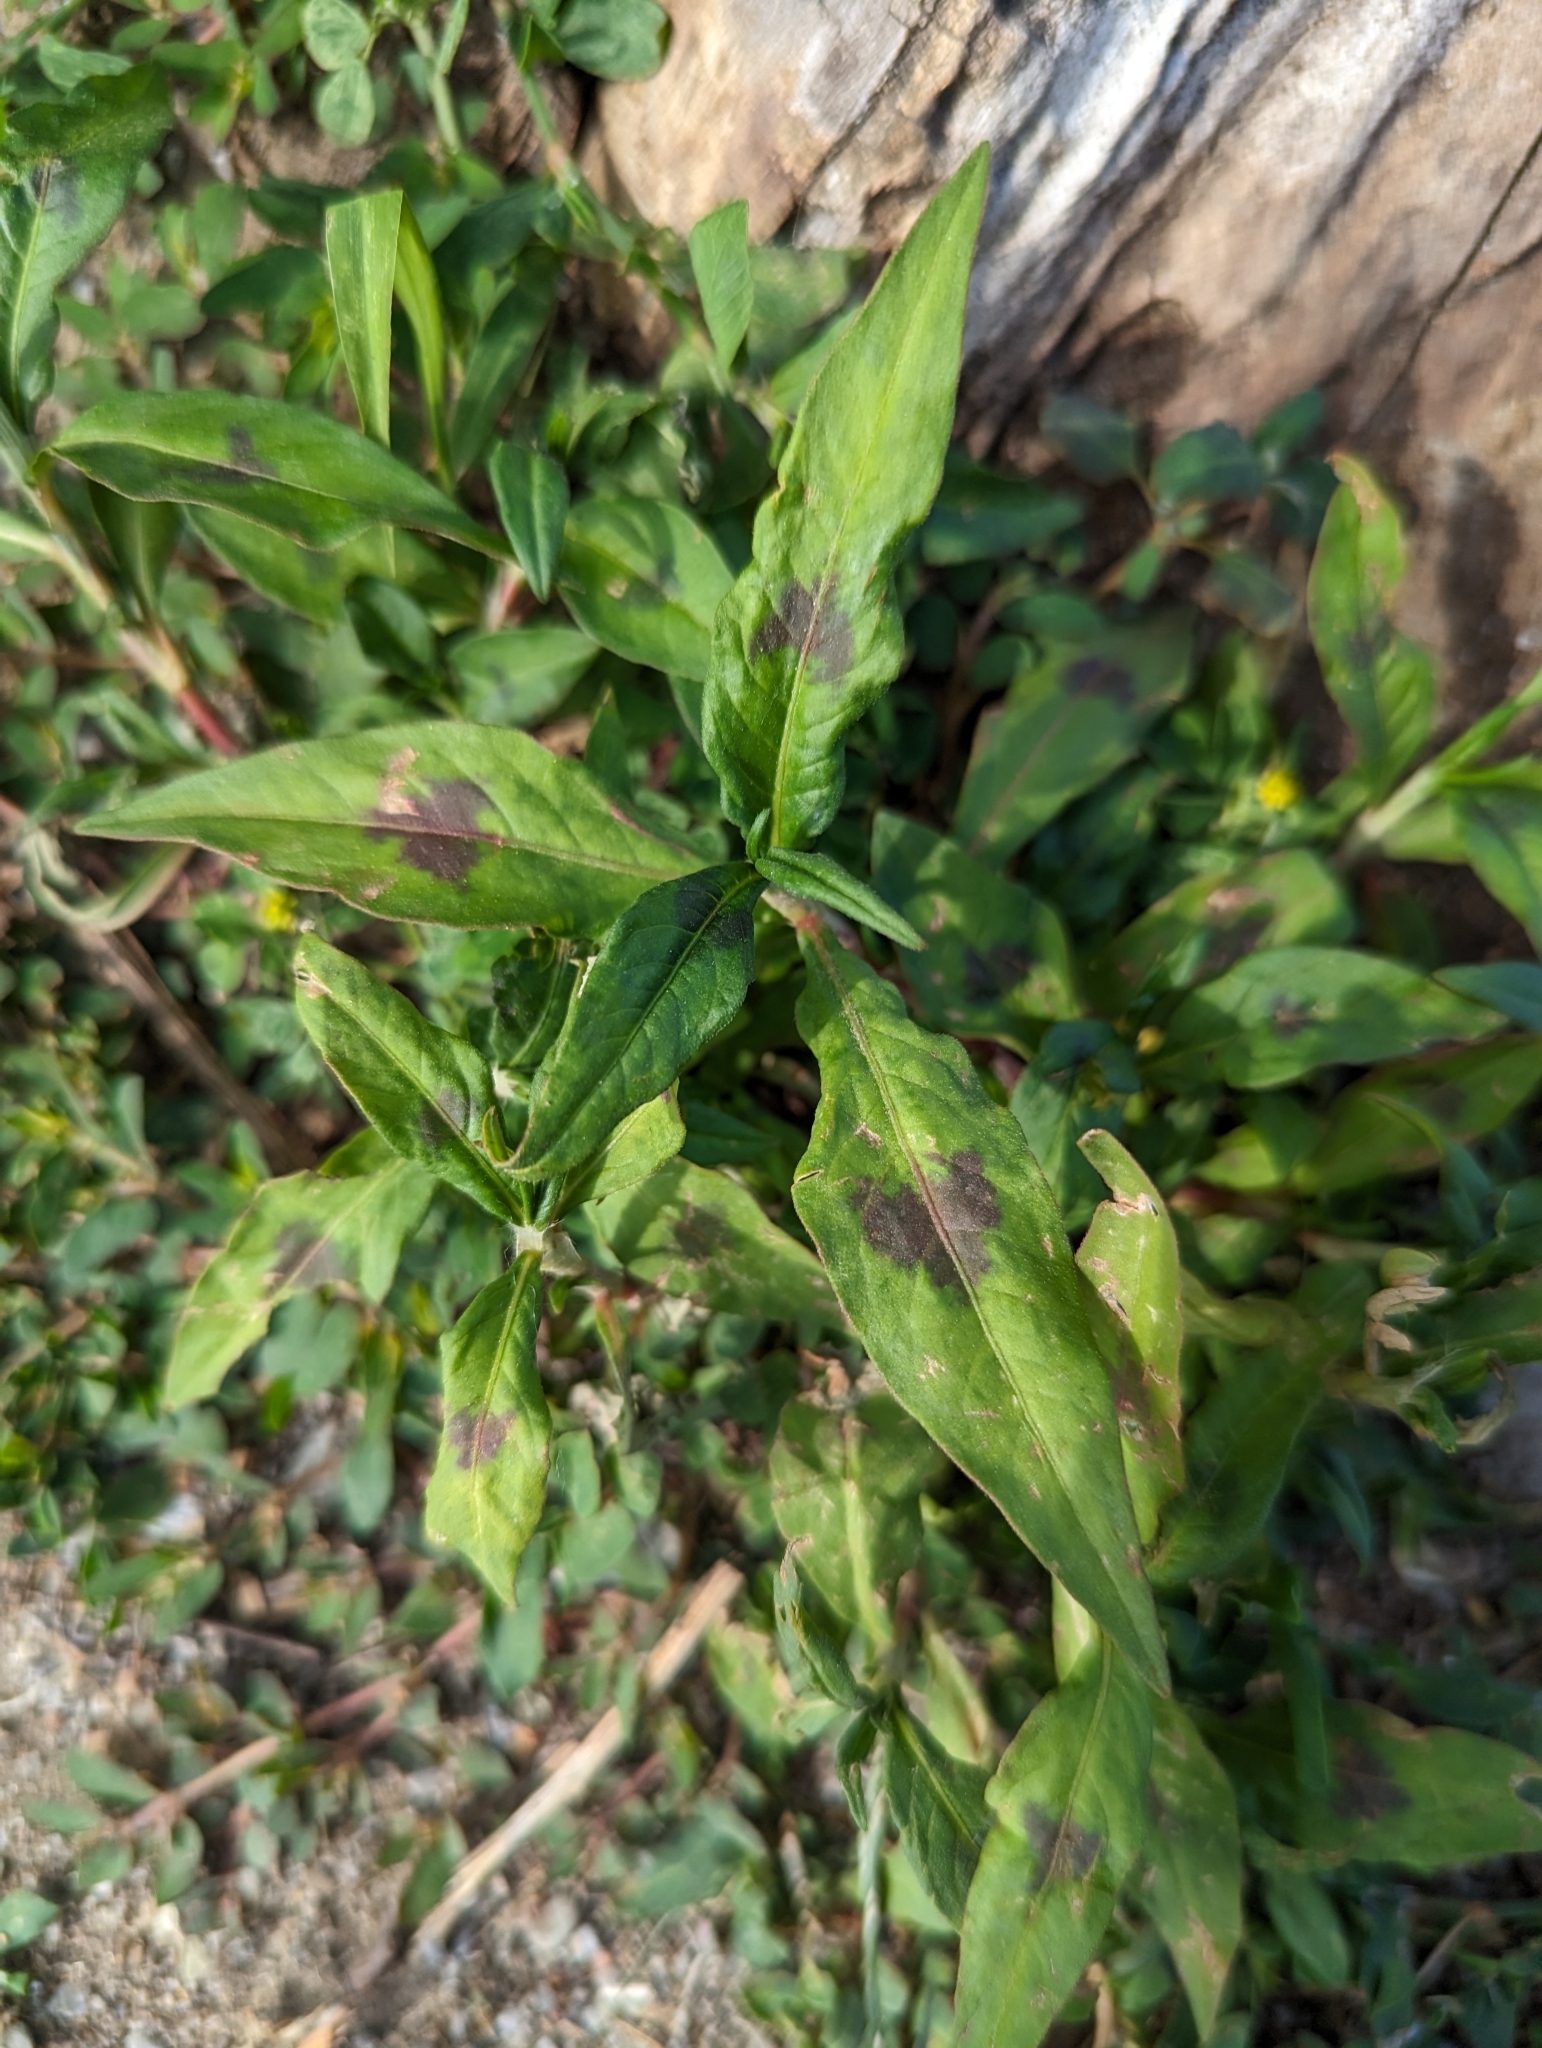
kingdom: Plantae
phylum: Tracheophyta
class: Magnoliopsida
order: Caryophyllales
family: Polygonaceae
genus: Persicaria
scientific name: Persicaria maculosa
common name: Redshank
